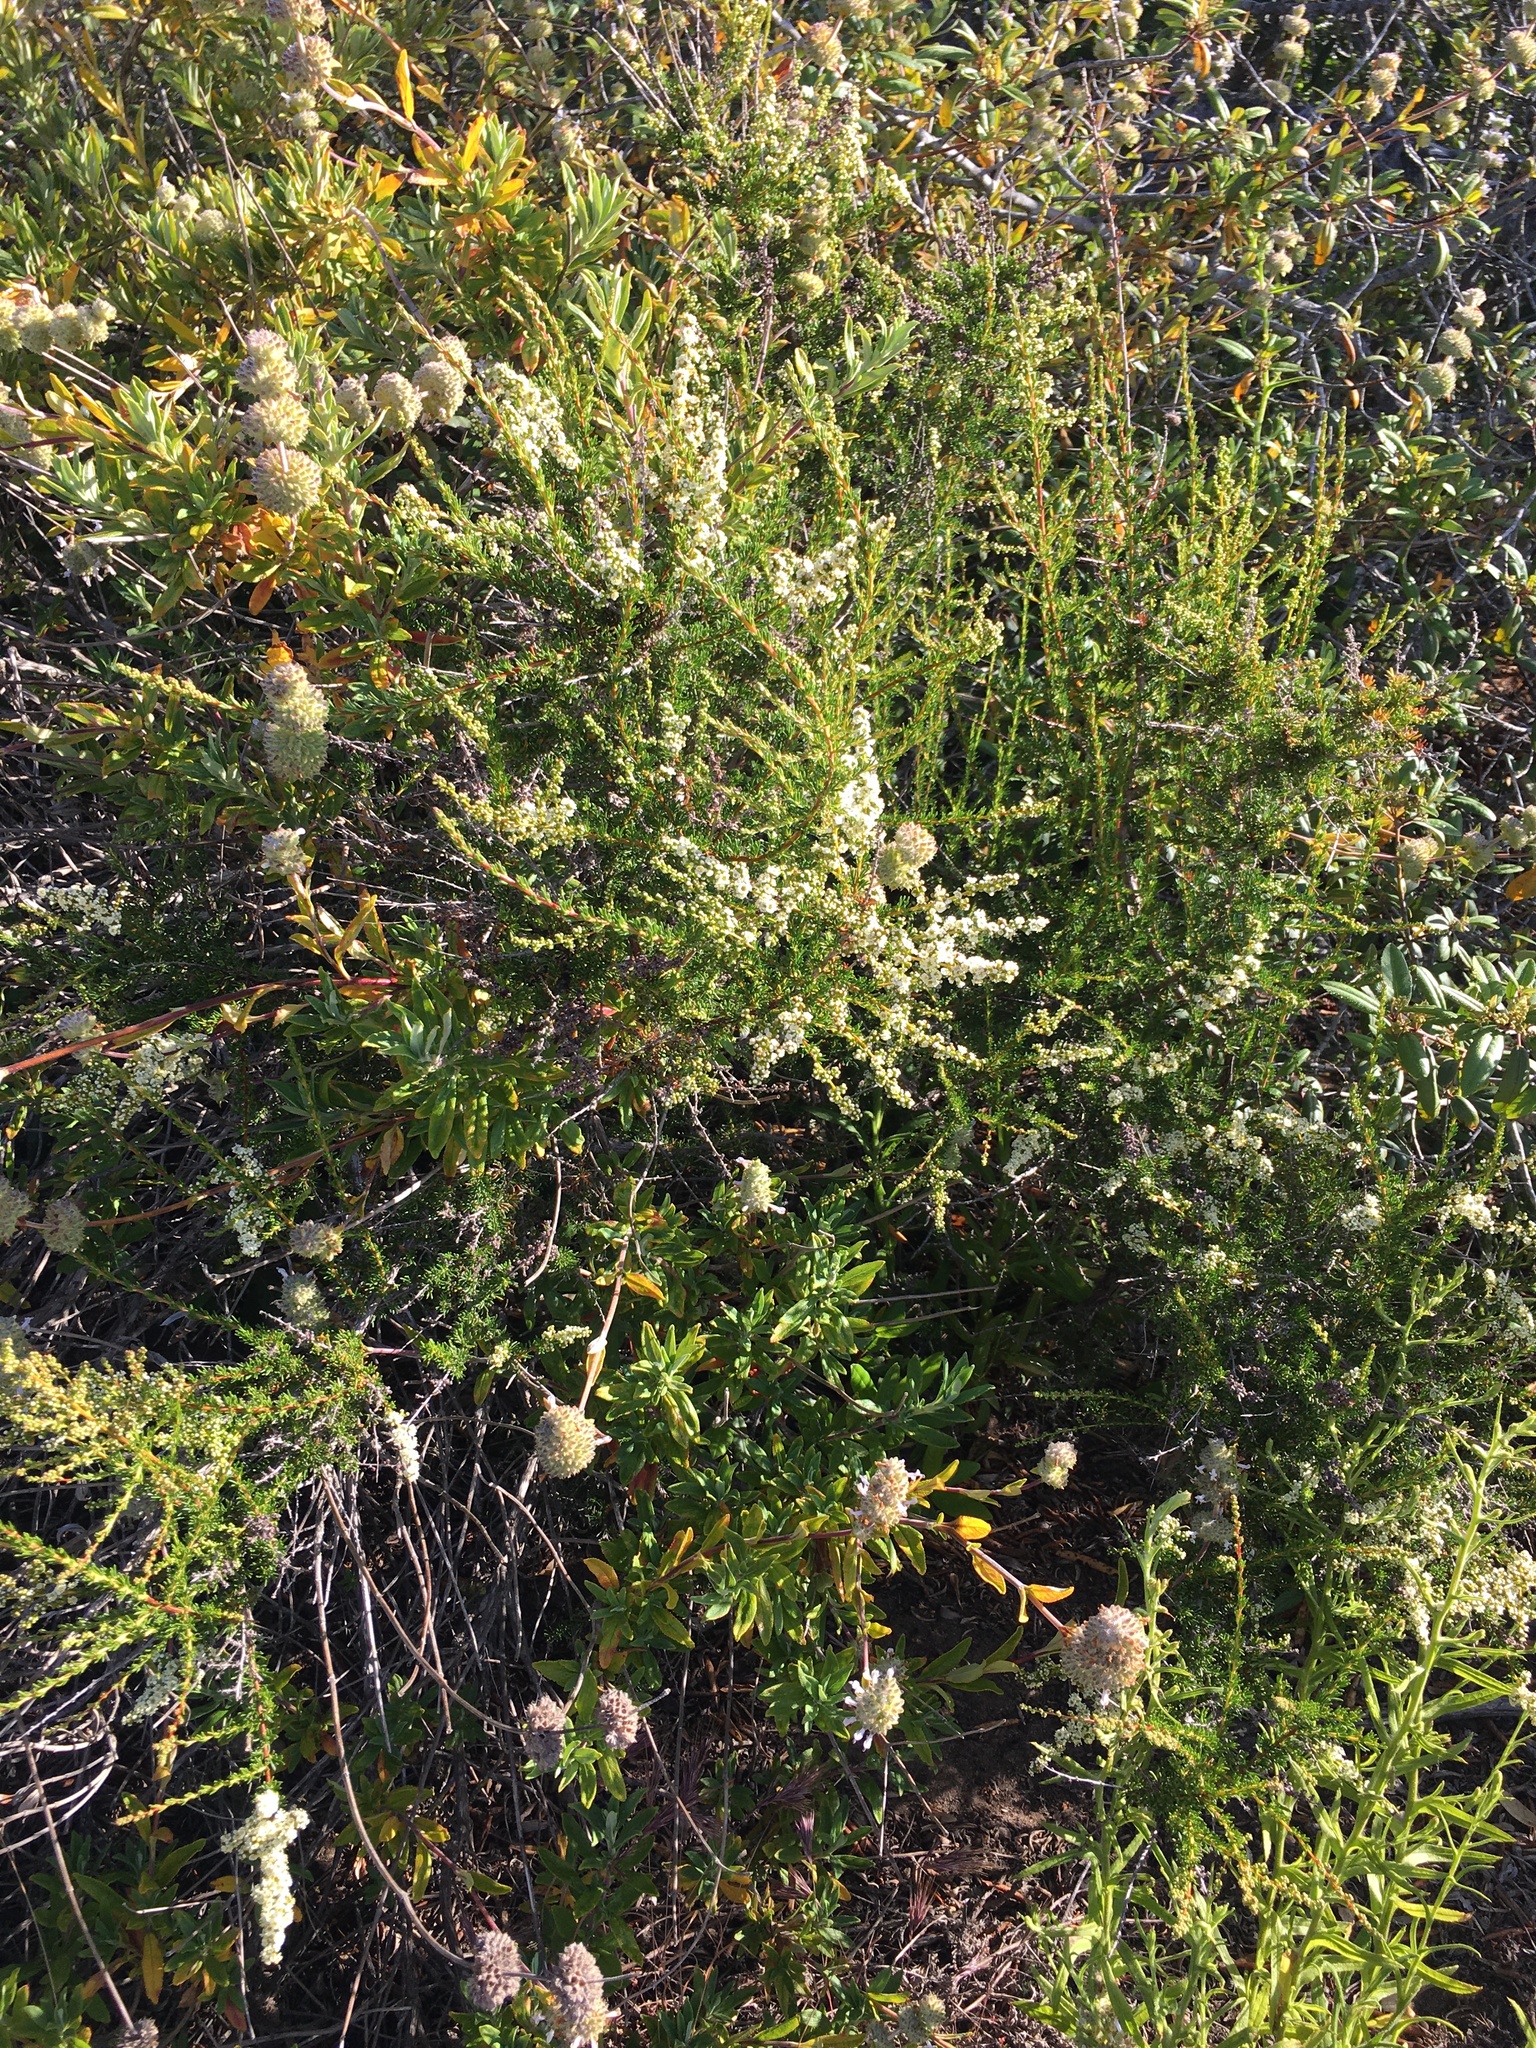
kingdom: Plantae
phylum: Tracheophyta
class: Magnoliopsida
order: Rosales
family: Rosaceae
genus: Adenostoma
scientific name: Adenostoma fasciculatum
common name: Chamise
